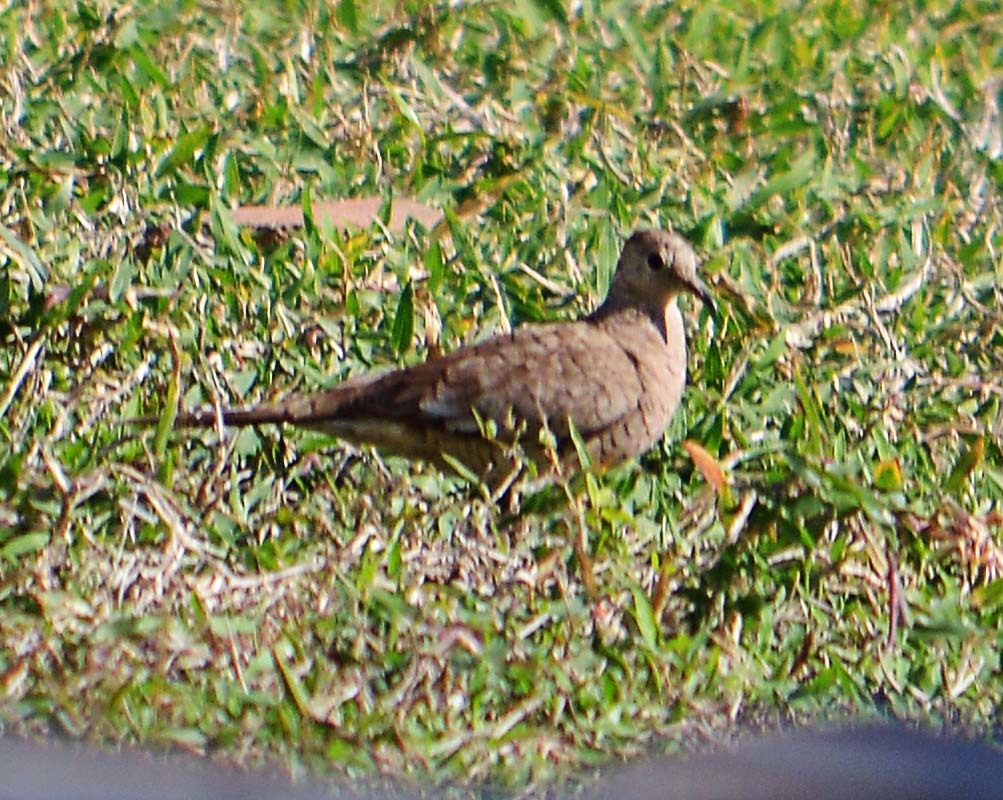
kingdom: Animalia
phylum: Chordata
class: Aves
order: Columbiformes
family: Columbidae
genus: Columbina
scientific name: Columbina inca
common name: Inca dove
